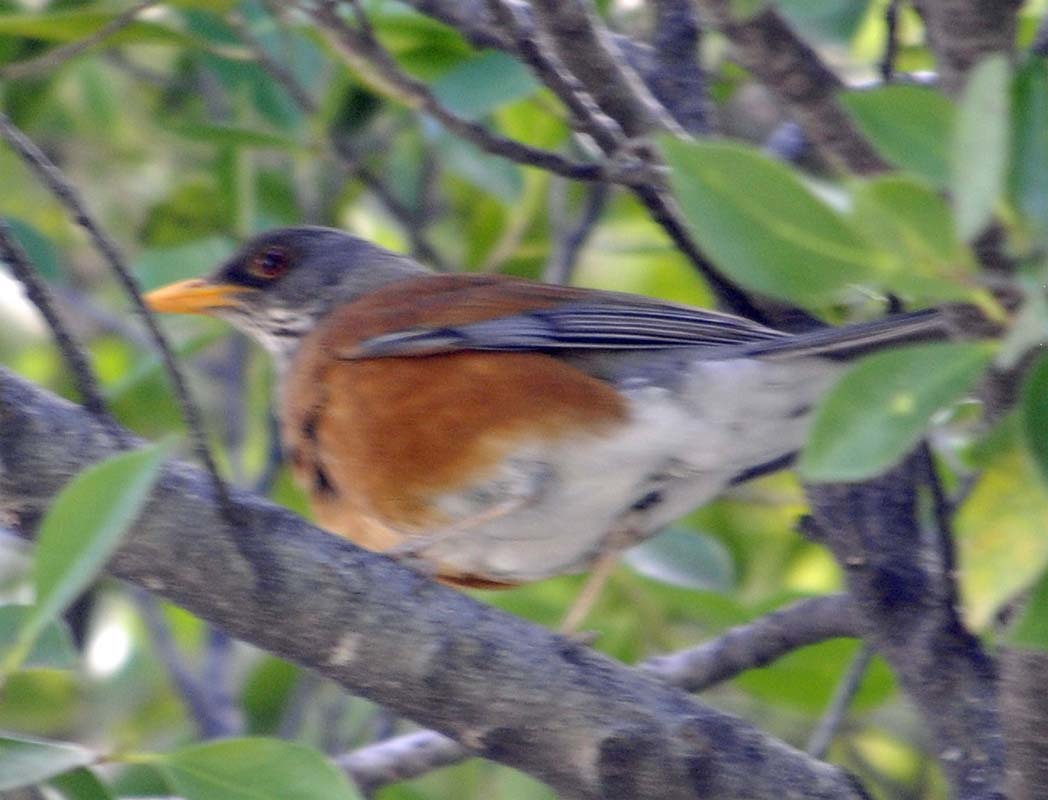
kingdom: Animalia
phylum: Chordata
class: Aves
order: Passeriformes
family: Turdidae
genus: Turdus
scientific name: Turdus rufopalliatus
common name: Rufous-backed robin
